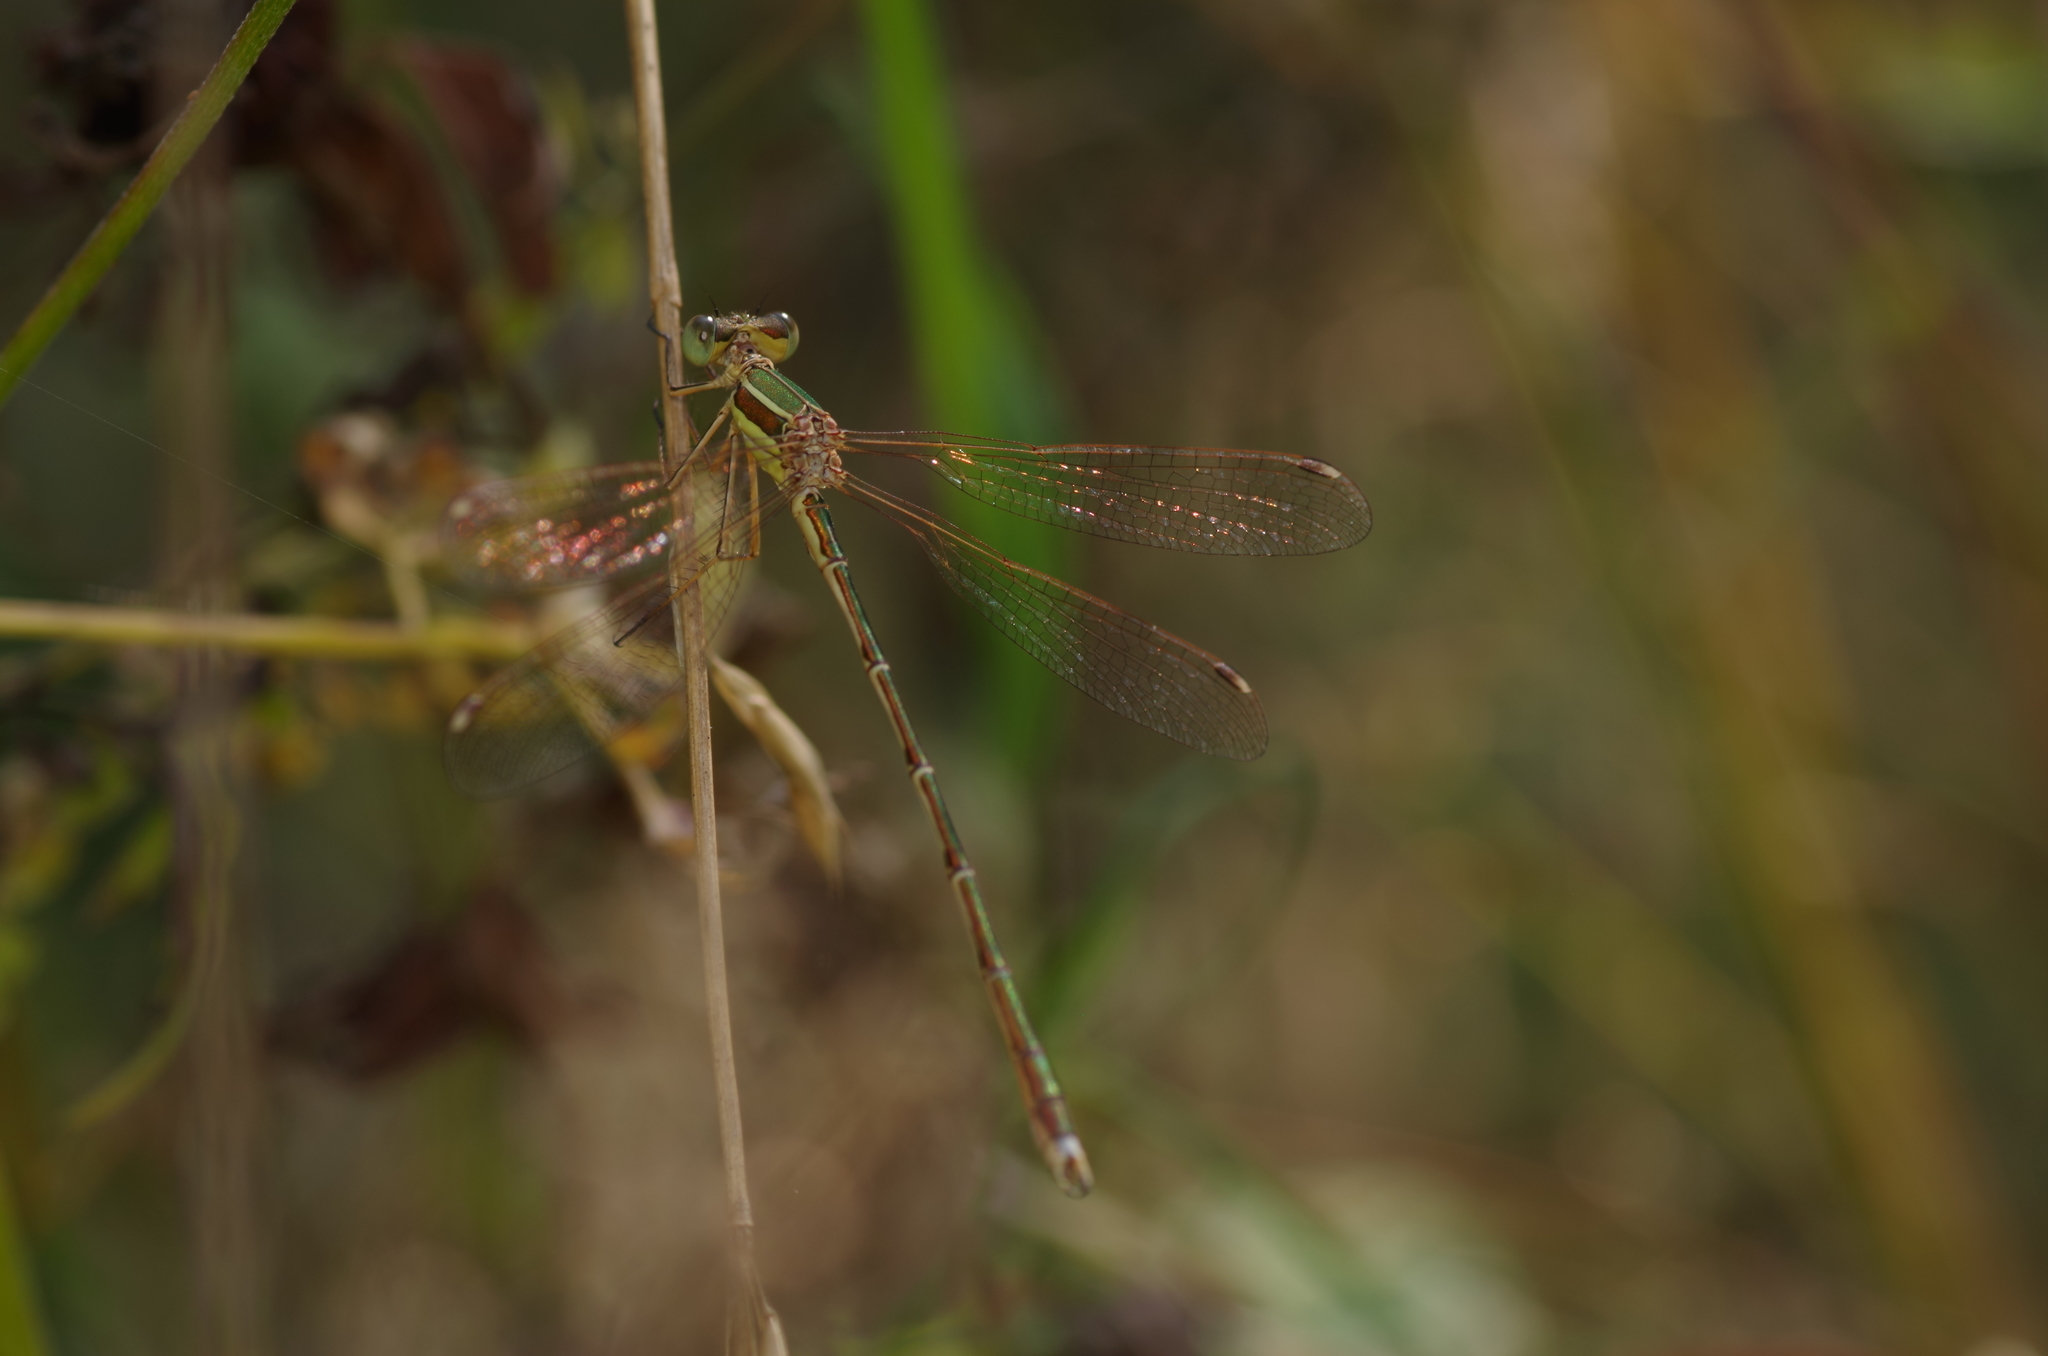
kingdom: Animalia
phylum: Arthropoda
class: Insecta
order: Odonata
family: Lestidae
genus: Lestes
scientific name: Lestes barbarus
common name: Migrant spreadwing
